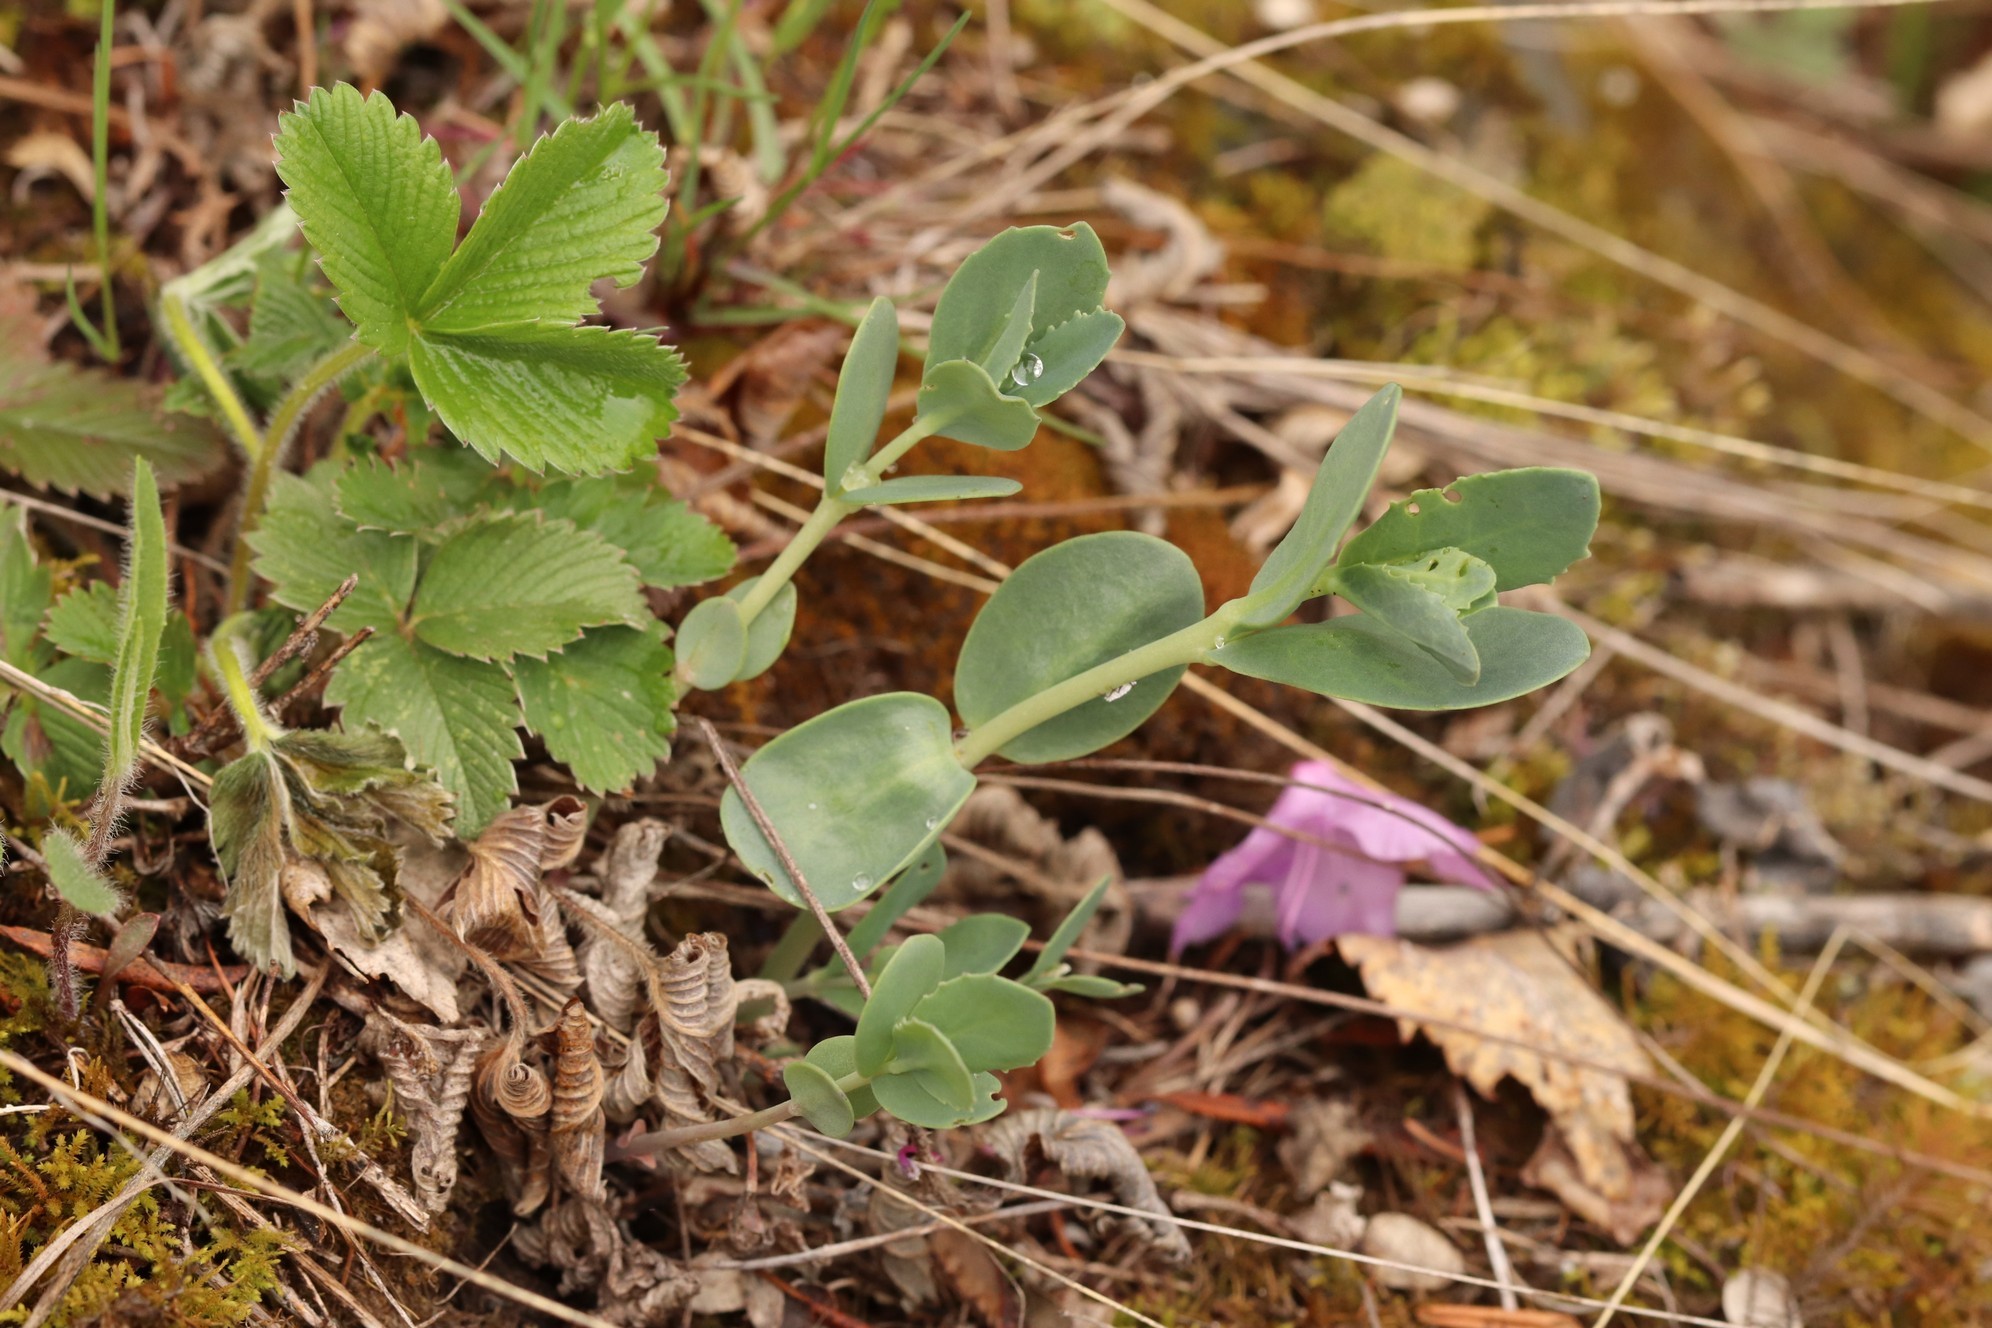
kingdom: Plantae
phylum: Tracheophyta
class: Magnoliopsida
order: Saxifragales
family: Crassulaceae
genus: Hylotelephium
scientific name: Hylotelephium telephium
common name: Live-forever
